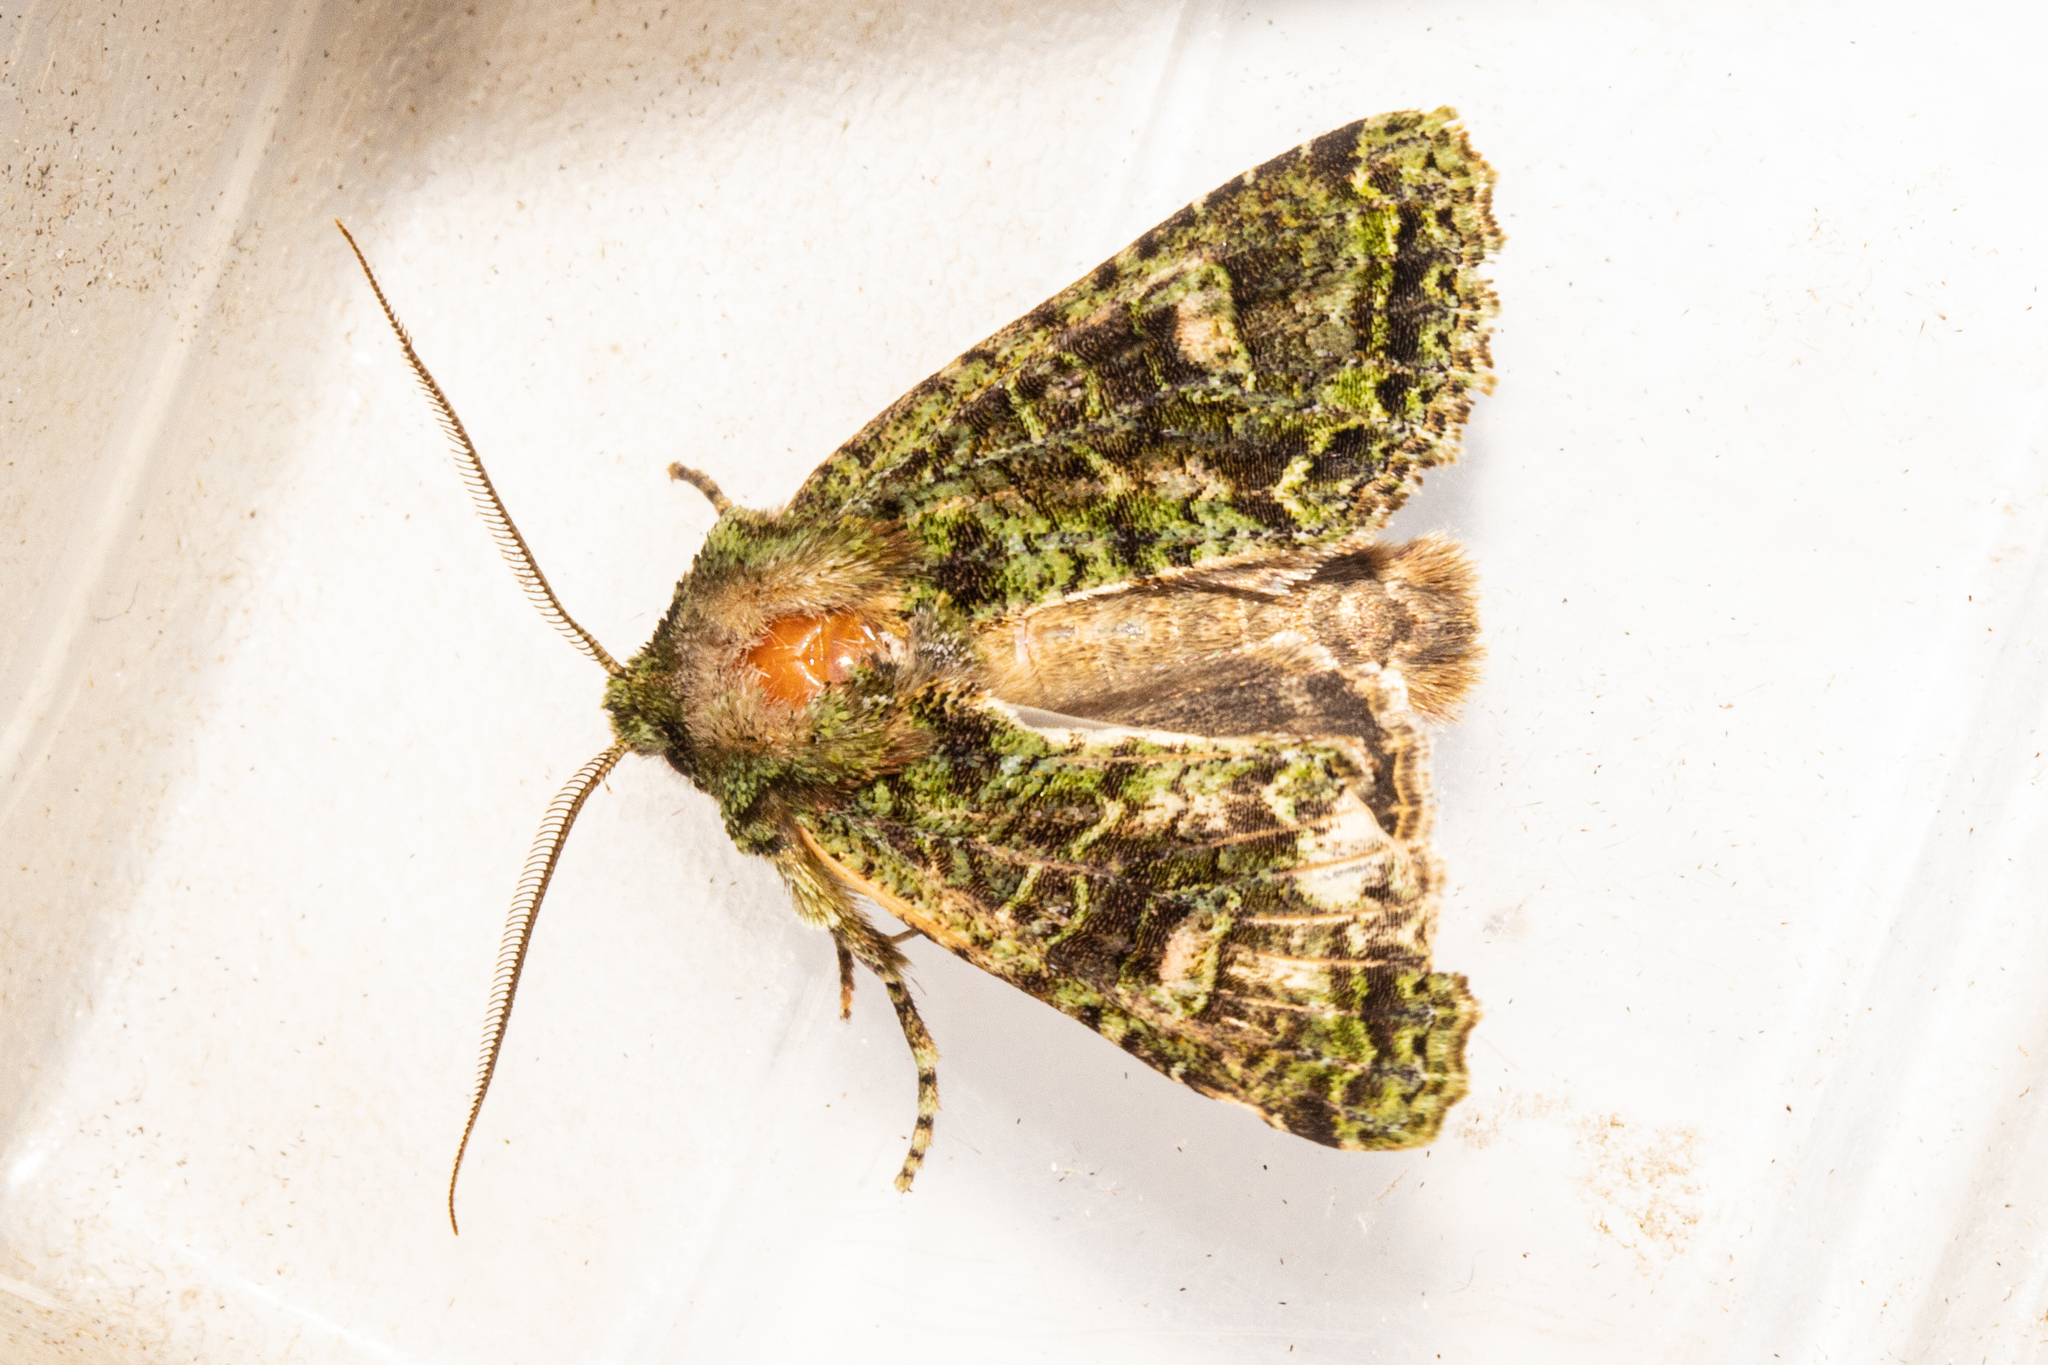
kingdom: Animalia
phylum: Arthropoda
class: Insecta
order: Lepidoptera
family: Noctuidae
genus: Ichneutica
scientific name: Ichneutica
